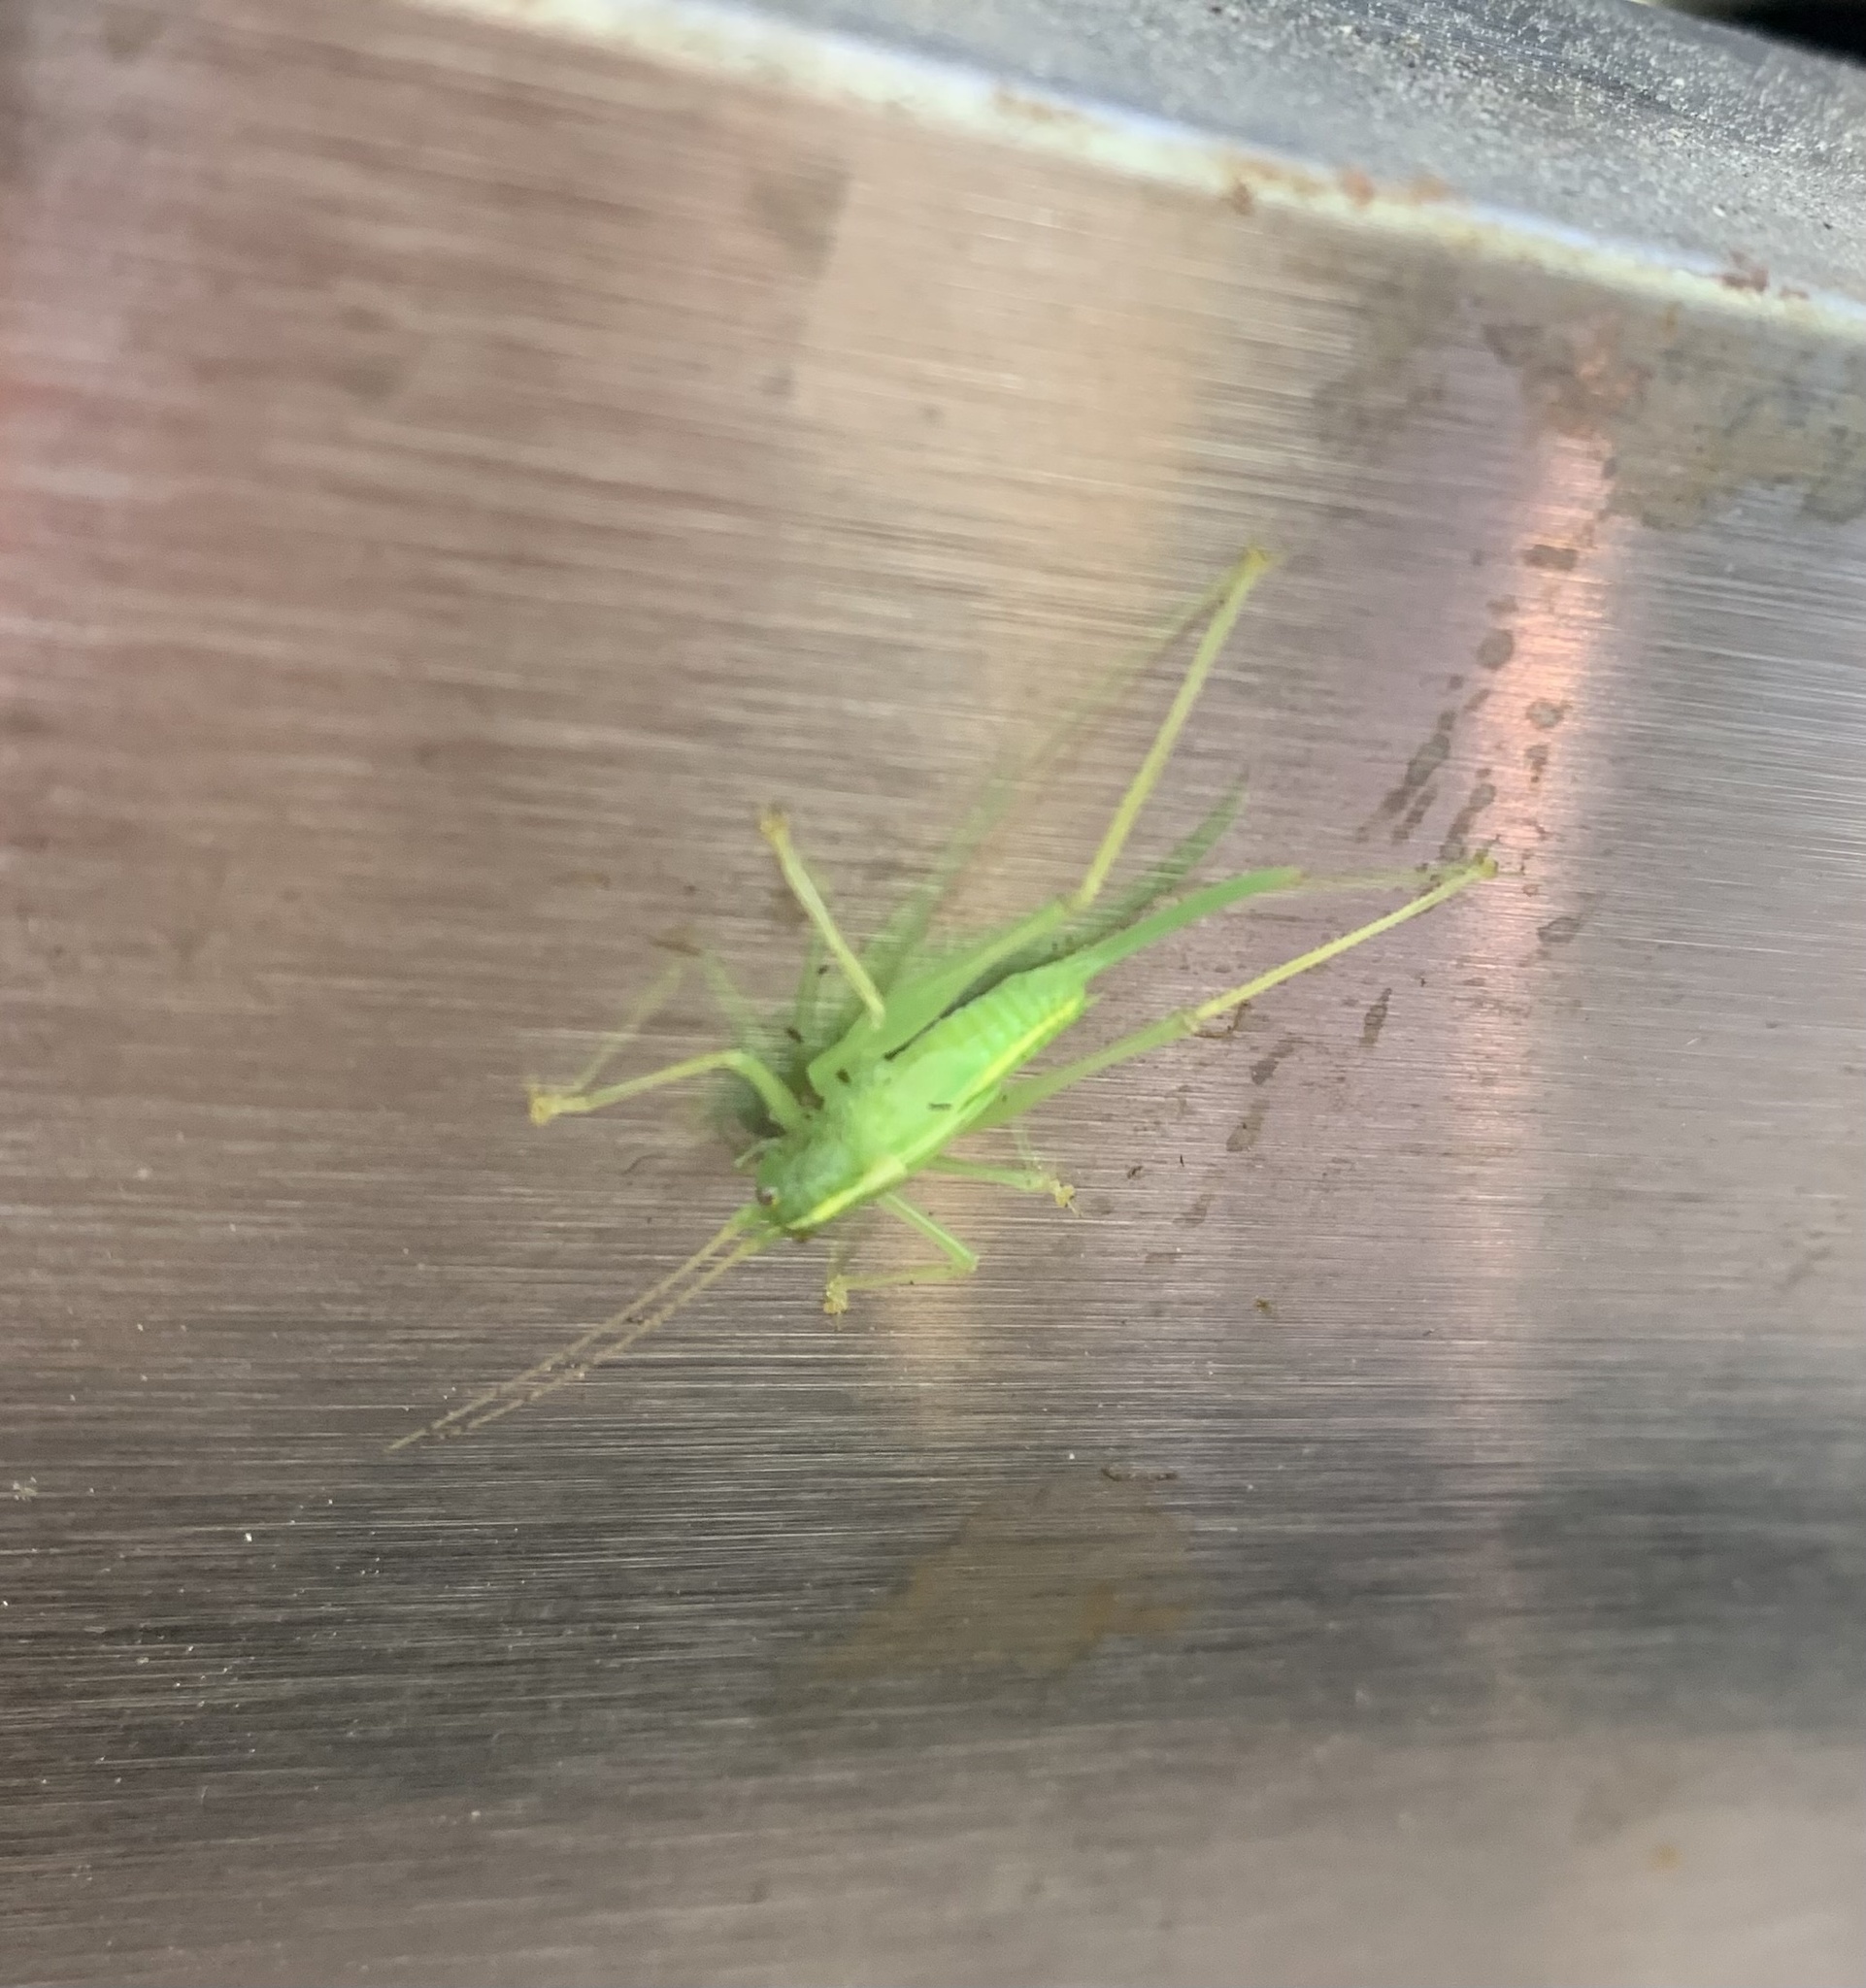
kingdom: Animalia
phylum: Arthropoda
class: Insecta
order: Orthoptera
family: Tettigoniidae
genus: Meconema
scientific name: Meconema thalassinum
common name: Oak bush-cricket
